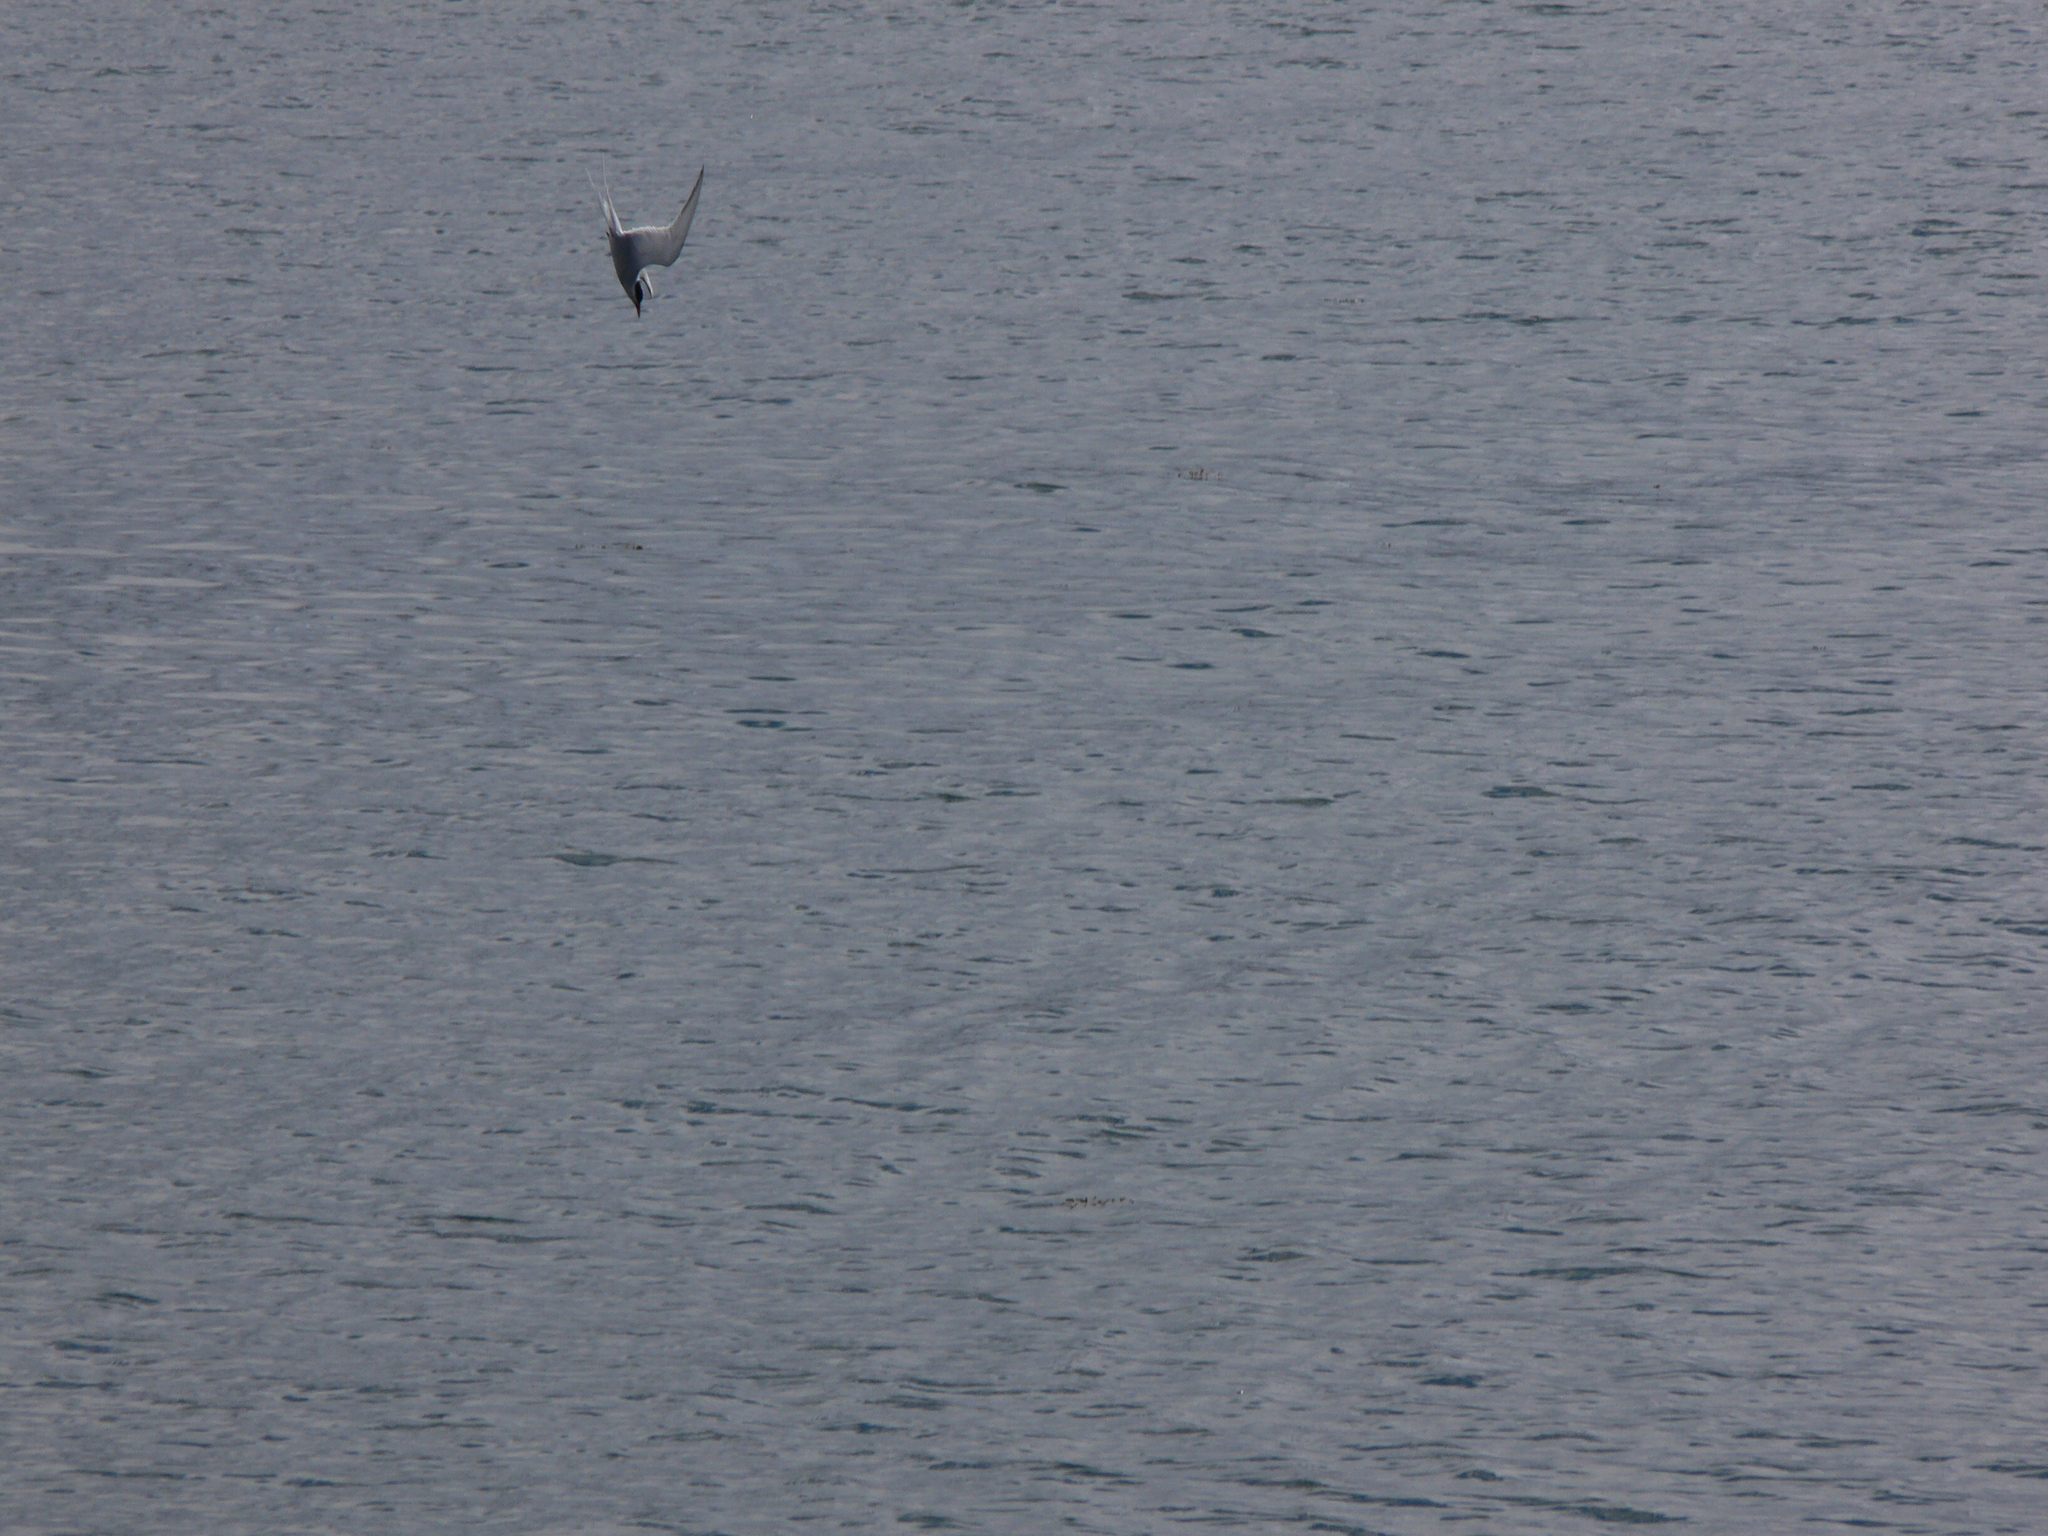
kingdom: Animalia
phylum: Chordata
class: Aves
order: Charadriiformes
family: Laridae
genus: Sterna
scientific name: Sterna paradisaea
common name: Arctic tern
